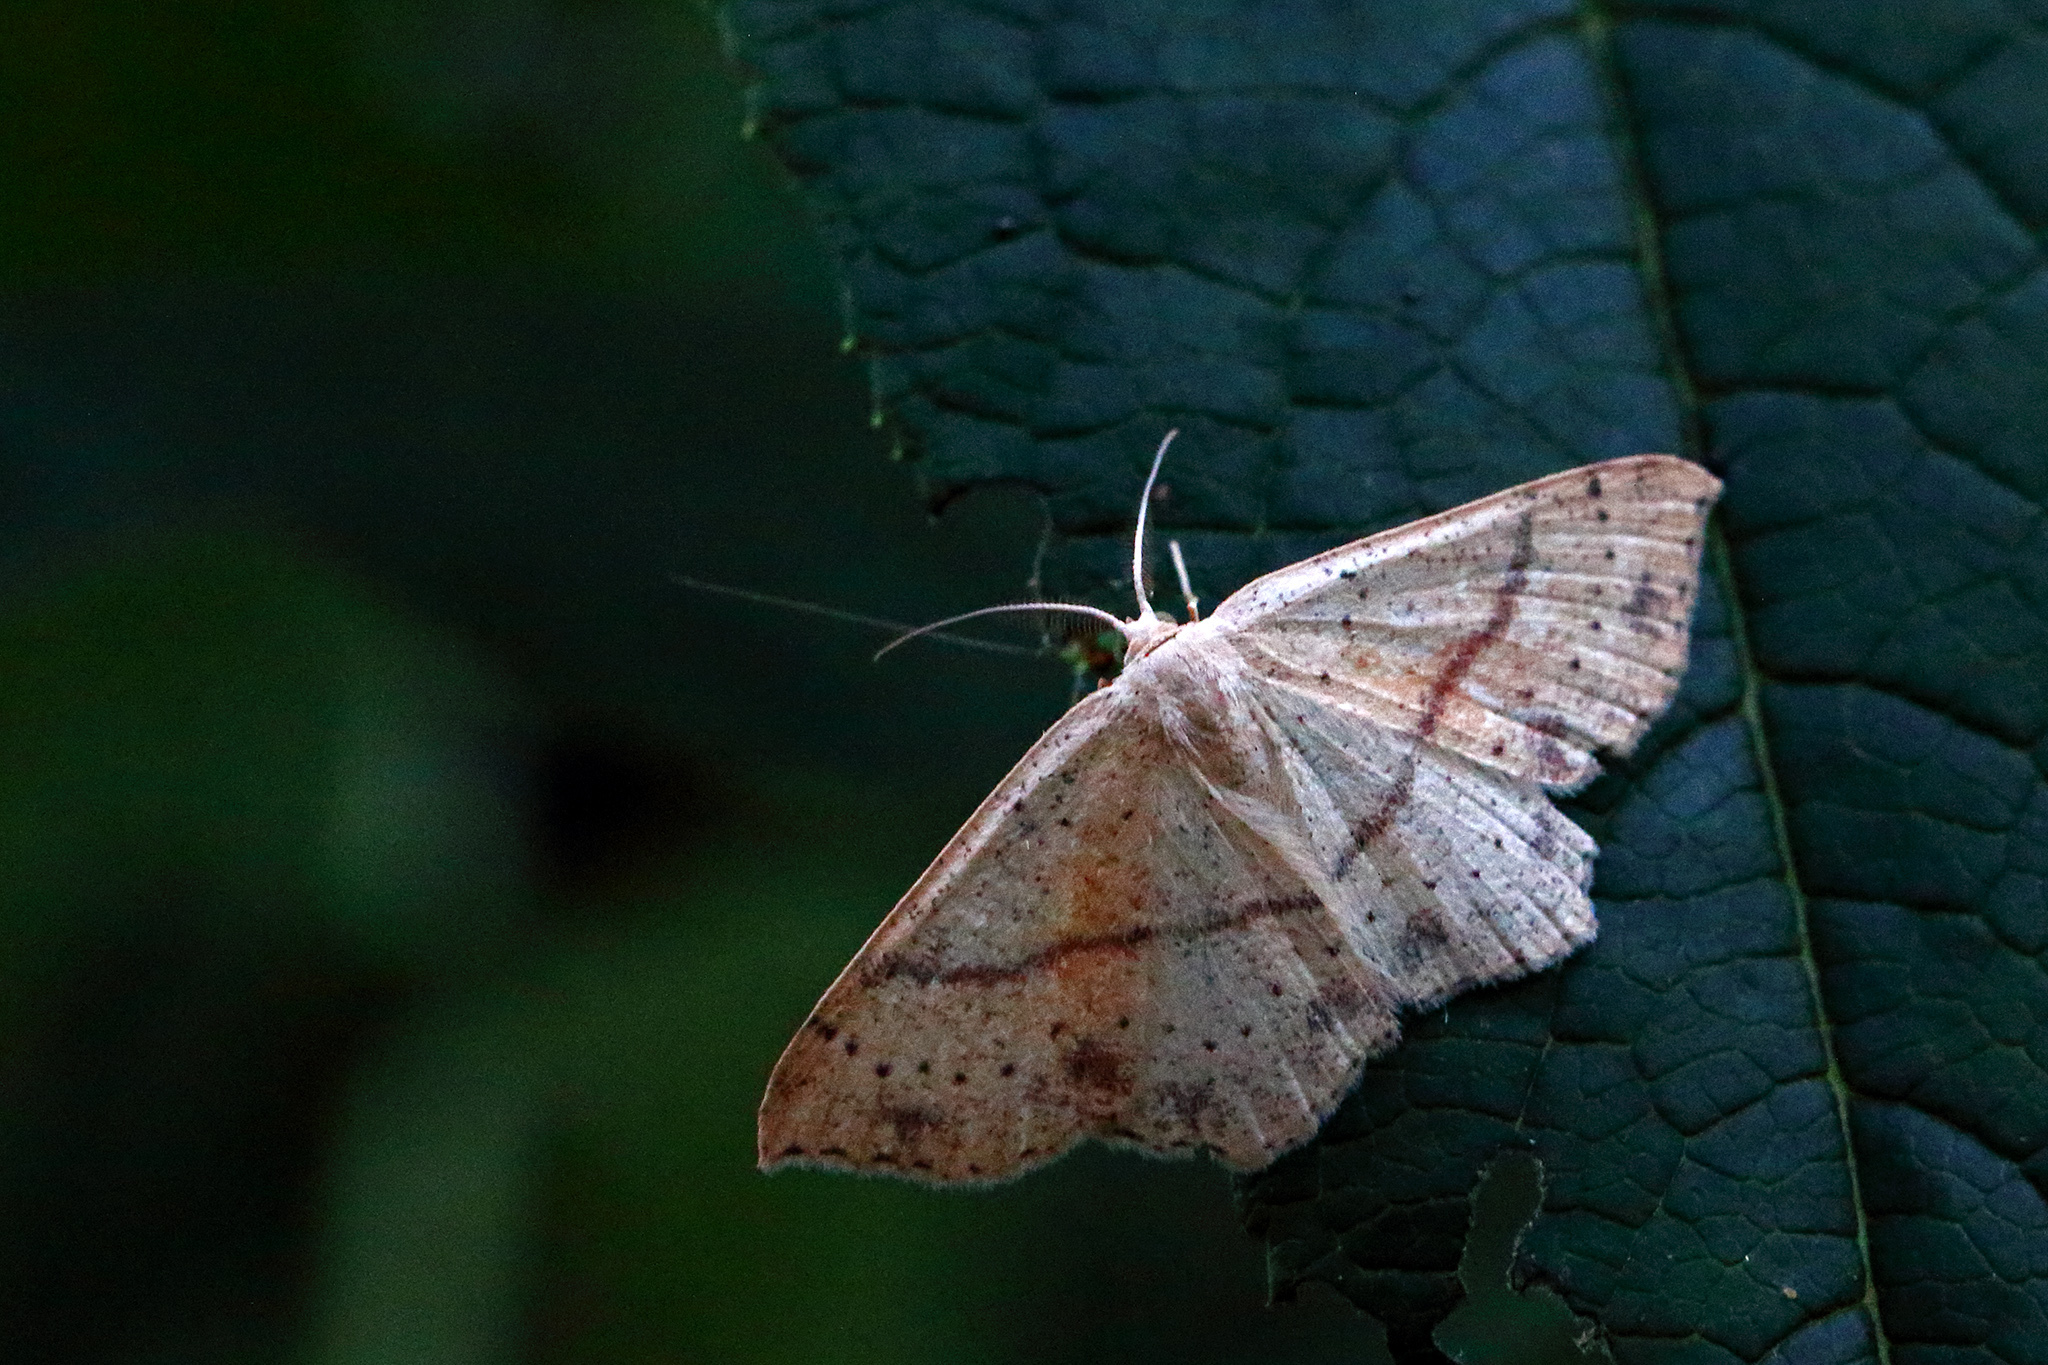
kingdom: Animalia
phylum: Arthropoda
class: Insecta
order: Lepidoptera
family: Geometridae
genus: Cyclophora
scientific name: Cyclophora punctaria
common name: Maiden's blush
